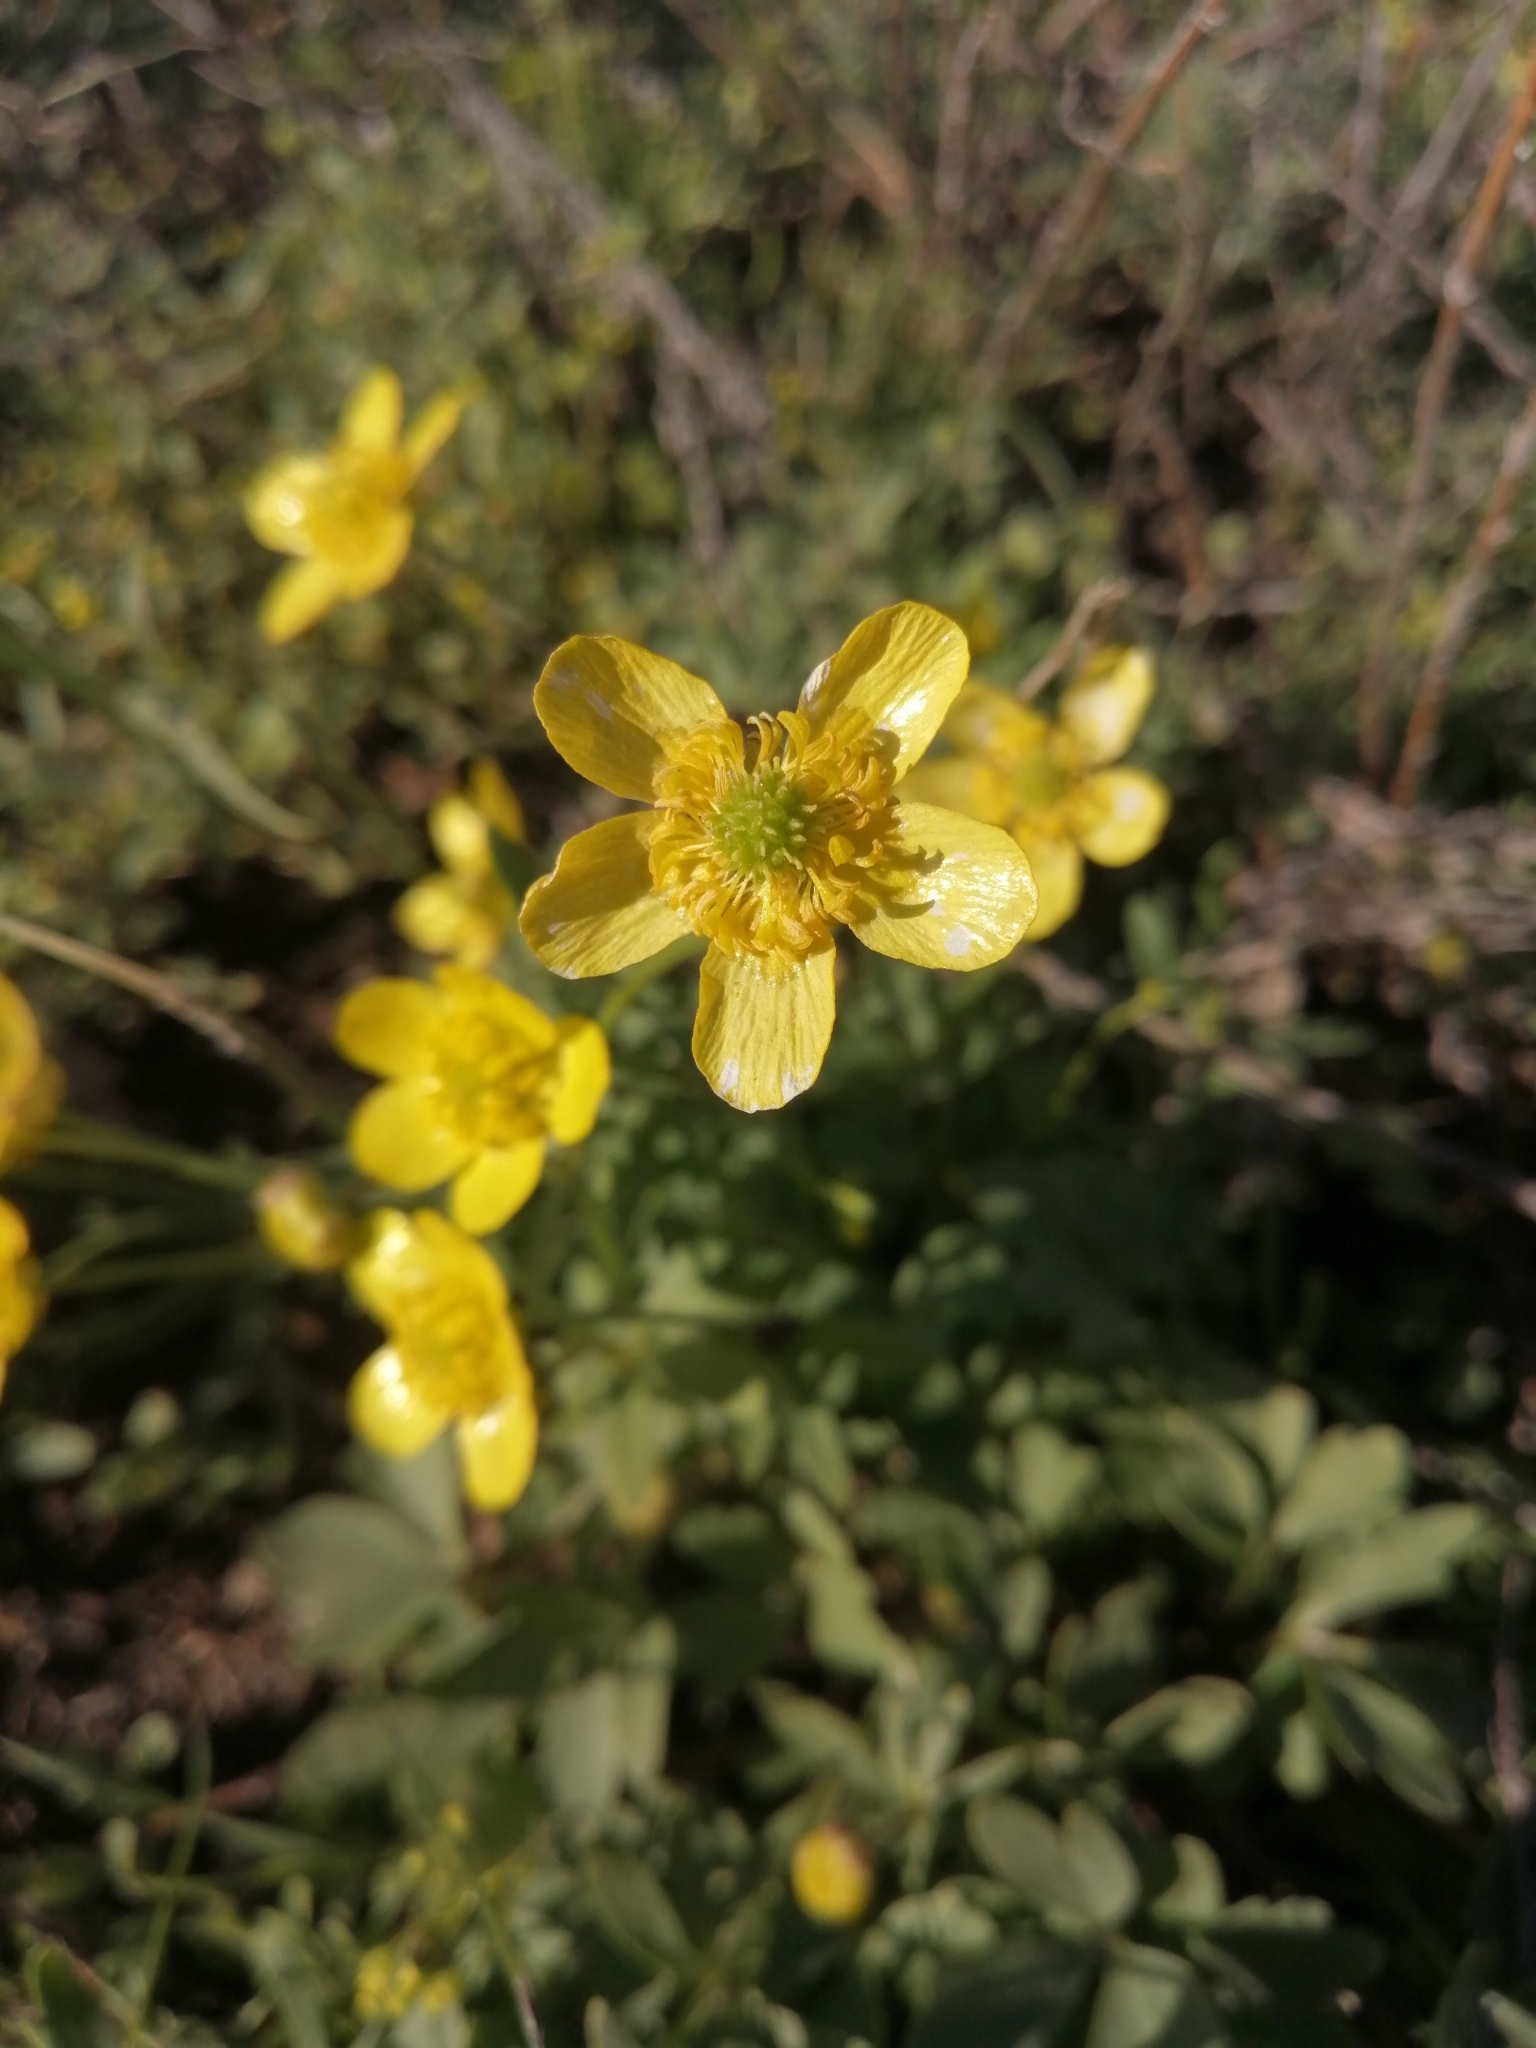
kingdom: Plantae
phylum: Tracheophyta
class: Magnoliopsida
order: Ranunculales
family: Ranunculaceae
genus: Ranunculus
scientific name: Ranunculus polyrhizos
